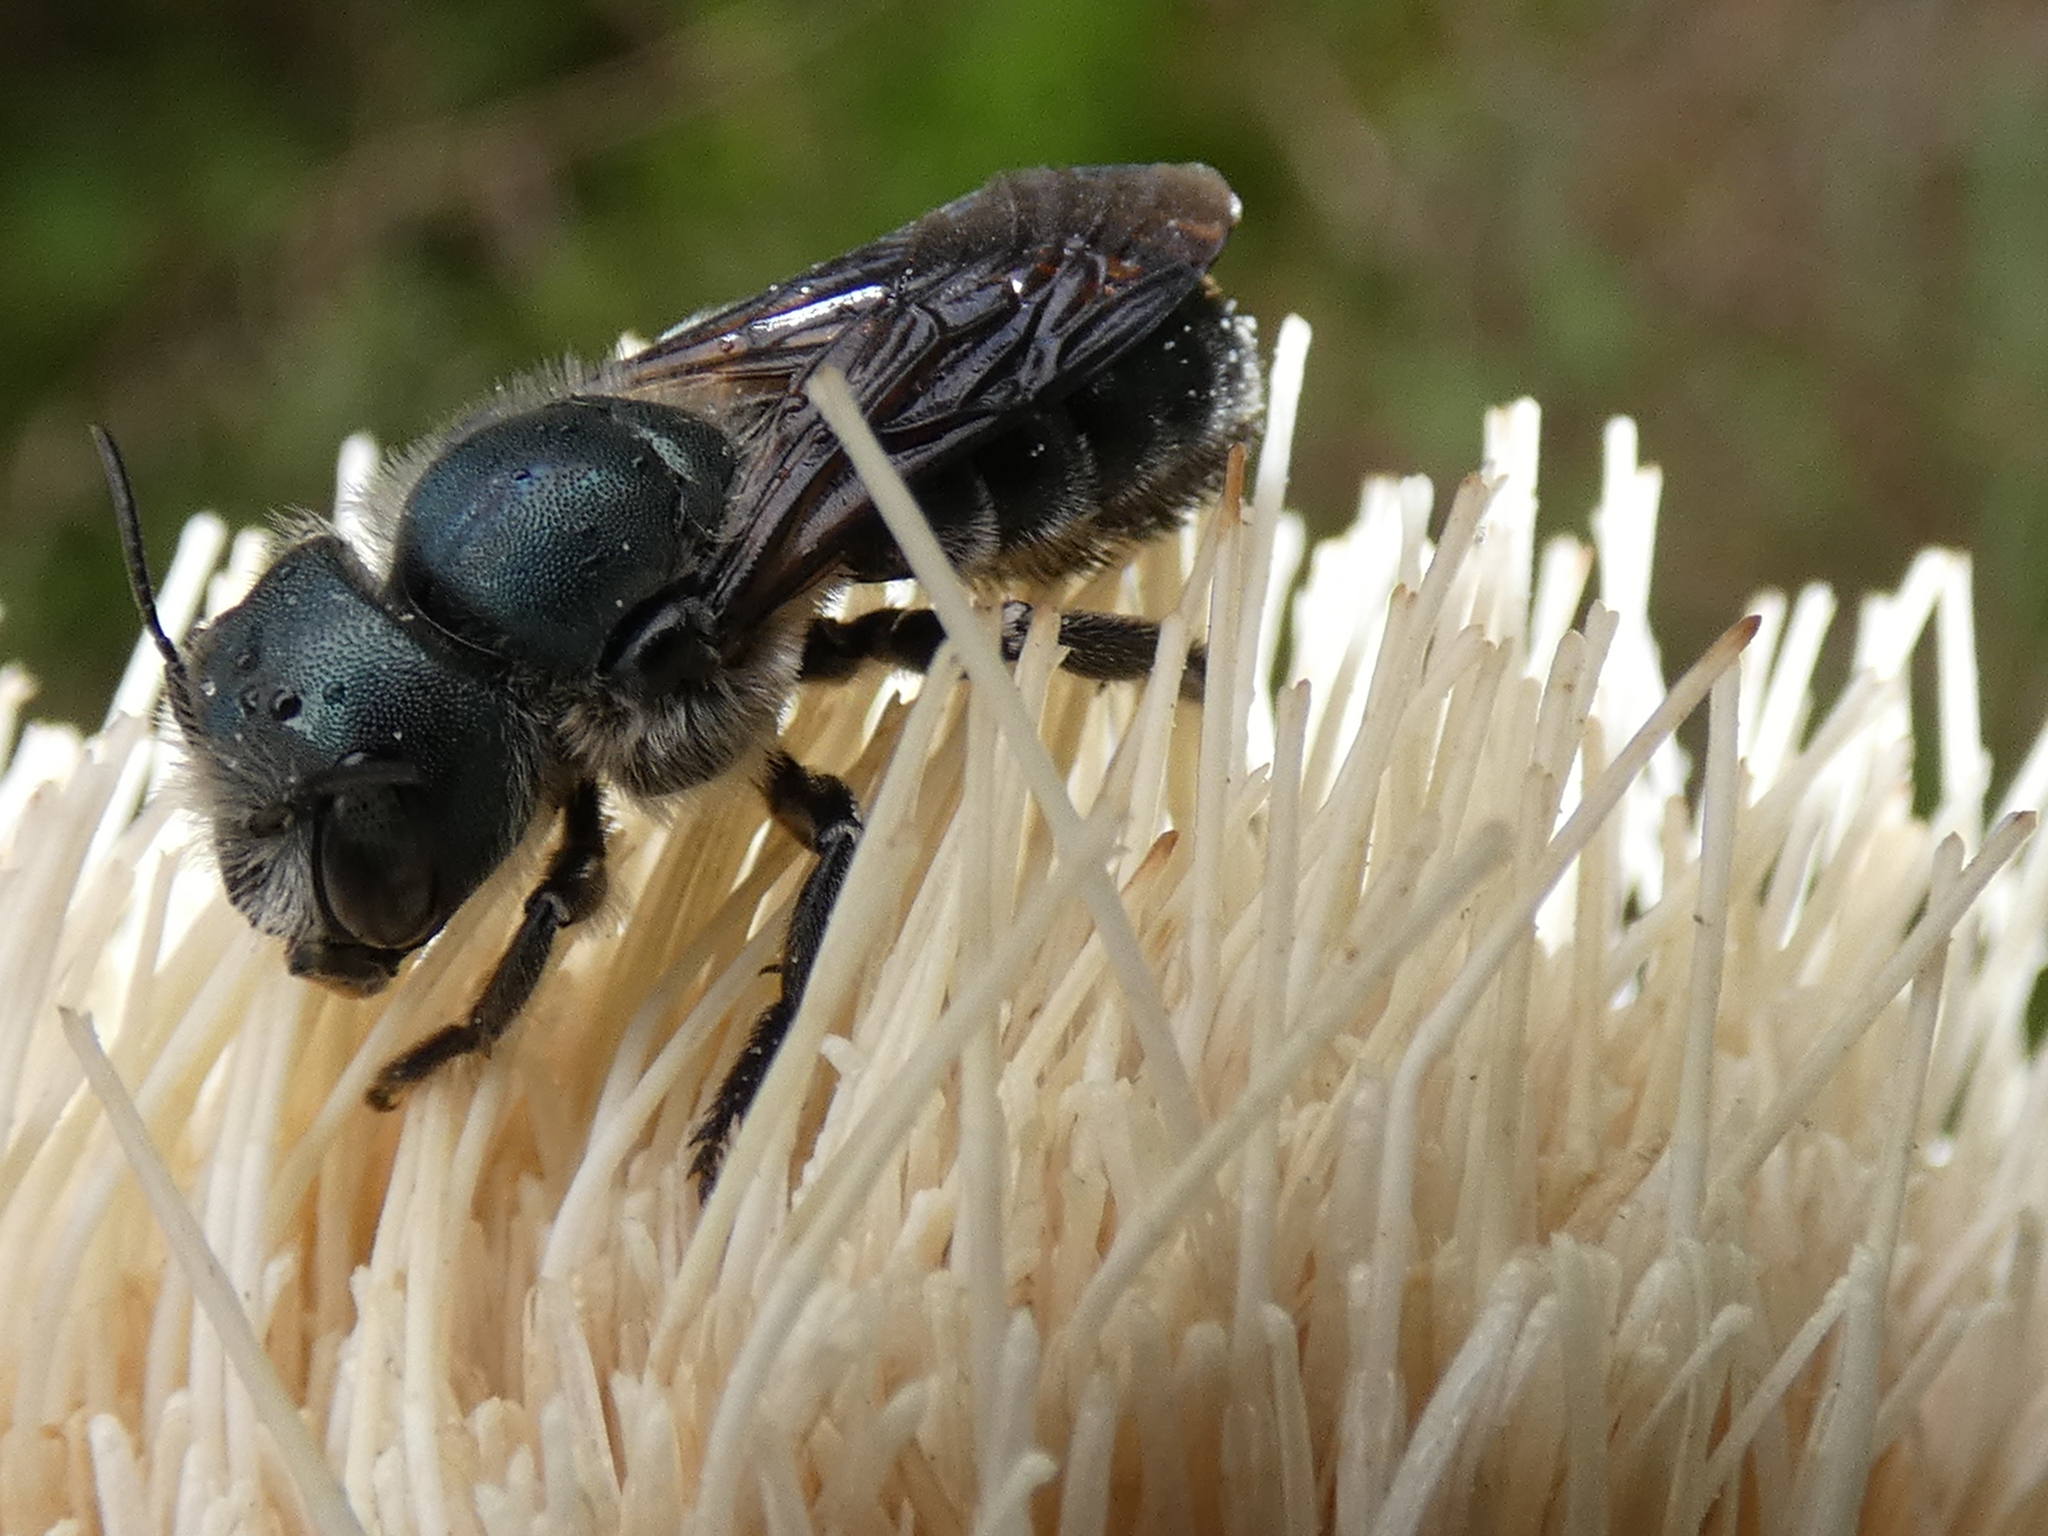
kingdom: Animalia
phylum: Arthropoda
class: Insecta
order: Hymenoptera
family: Megachilidae
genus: Osmia
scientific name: Osmia chalybea
